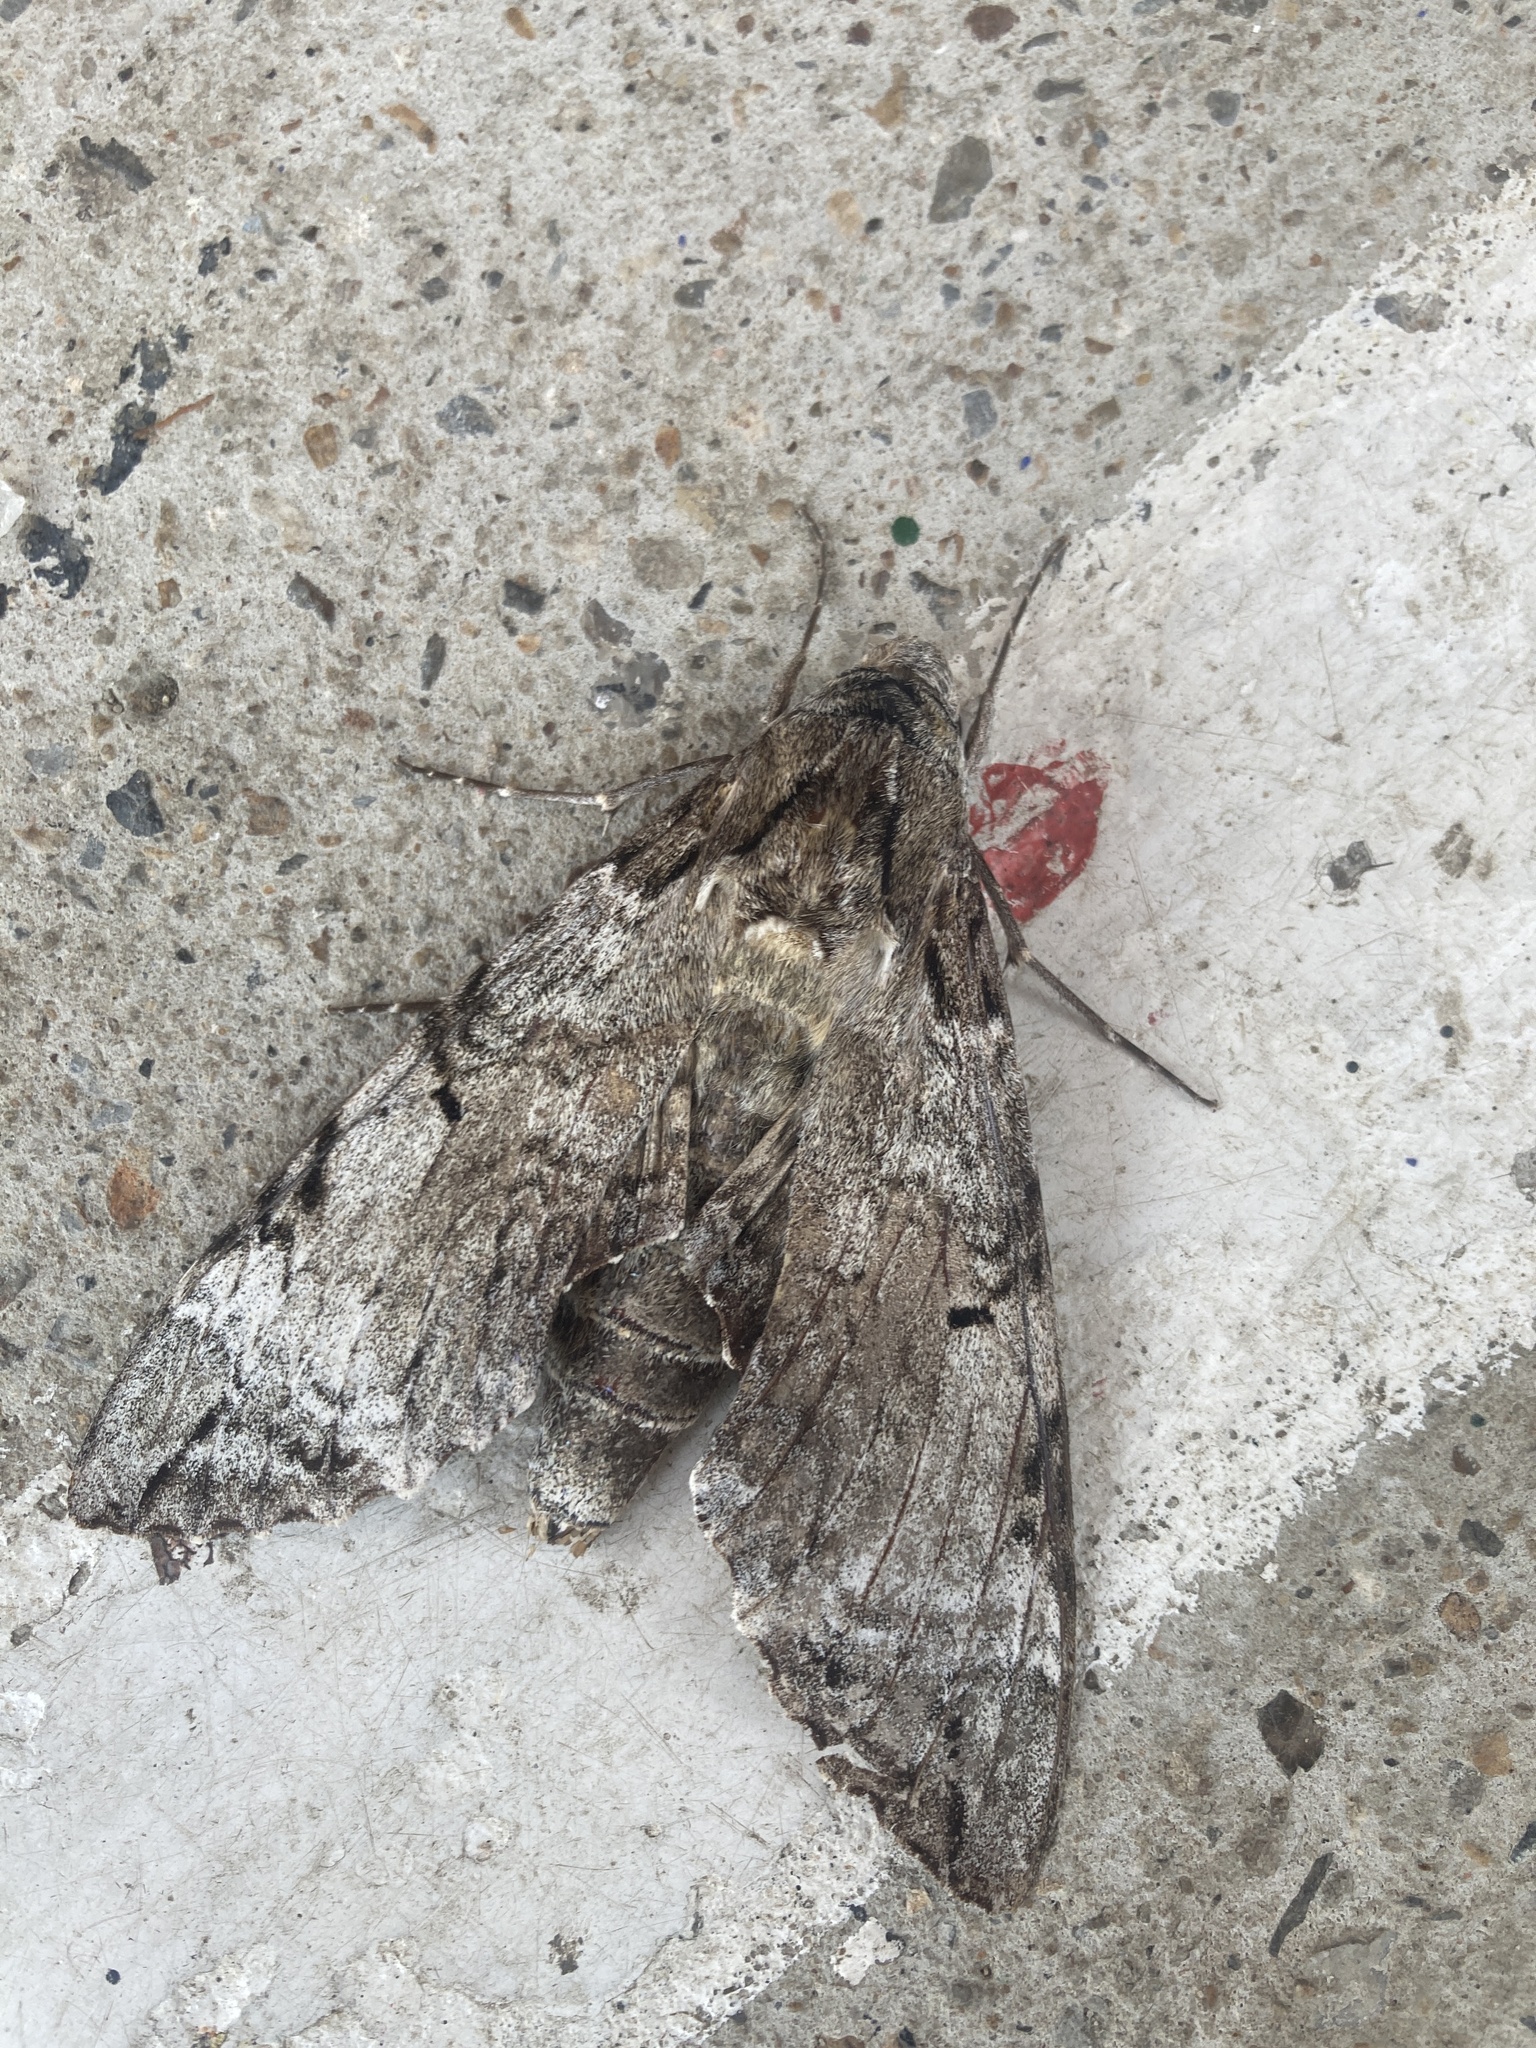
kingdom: Animalia
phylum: Arthropoda
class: Insecta
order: Lepidoptera
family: Sphingidae
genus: Pseudosphinx
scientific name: Pseudosphinx tetrio
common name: Tetrio sphinx
